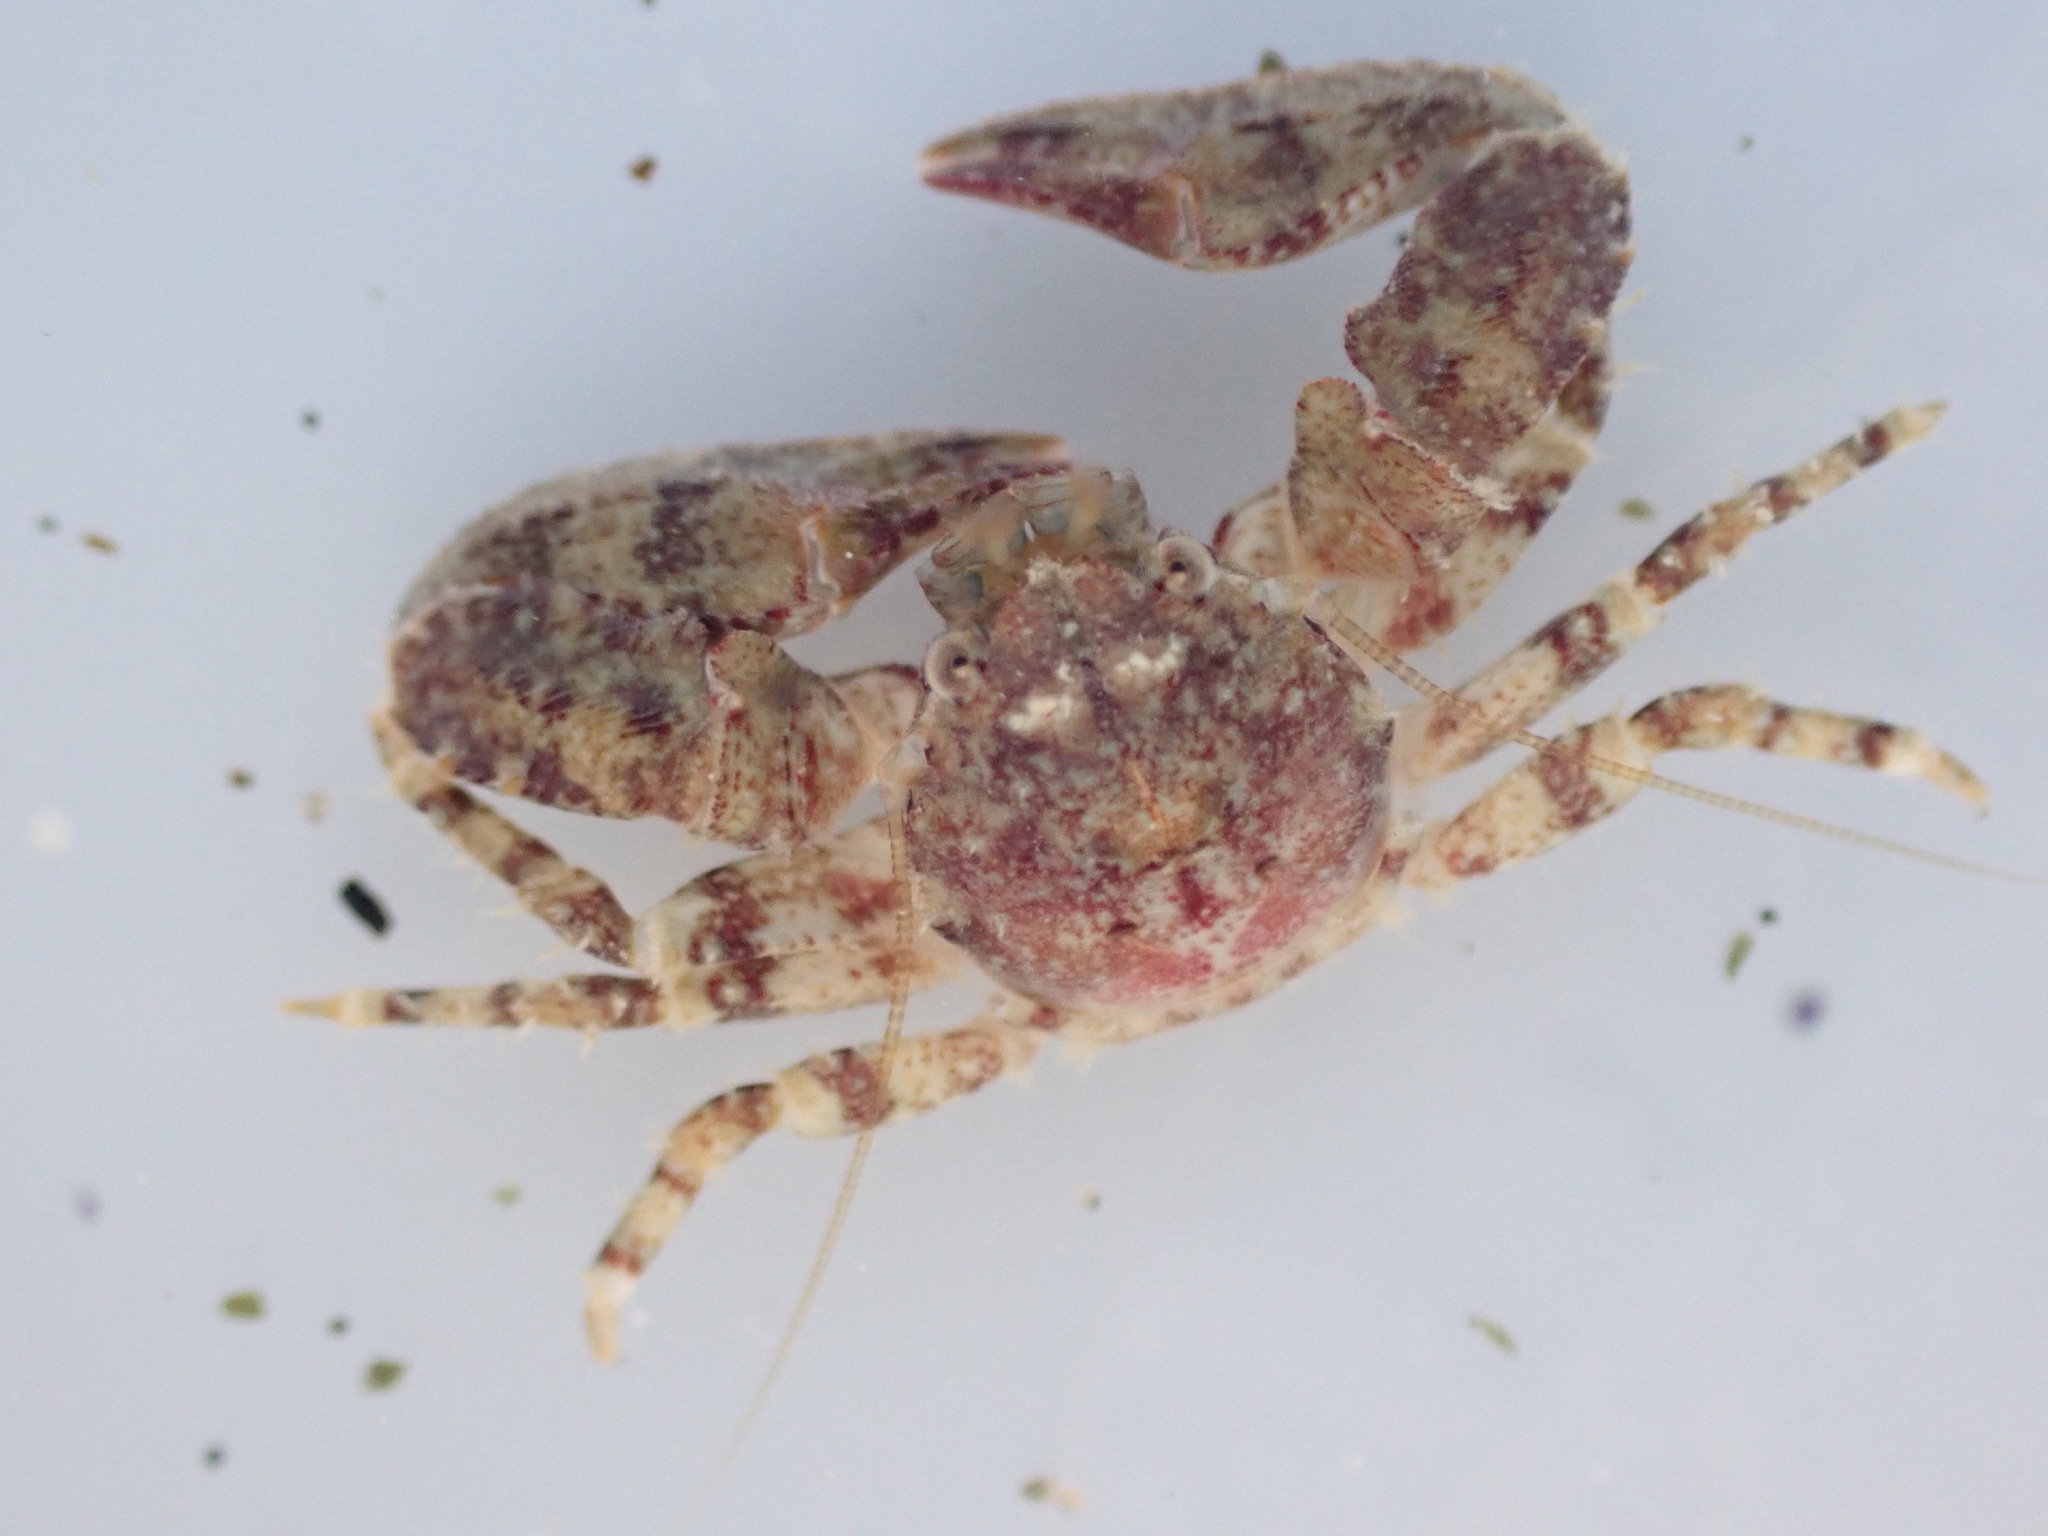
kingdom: Animalia
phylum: Arthropoda
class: Malacostraca
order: Decapoda
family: Porcellanidae
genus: Petrolisthes
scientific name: Petrolisthes novaezelandiae
